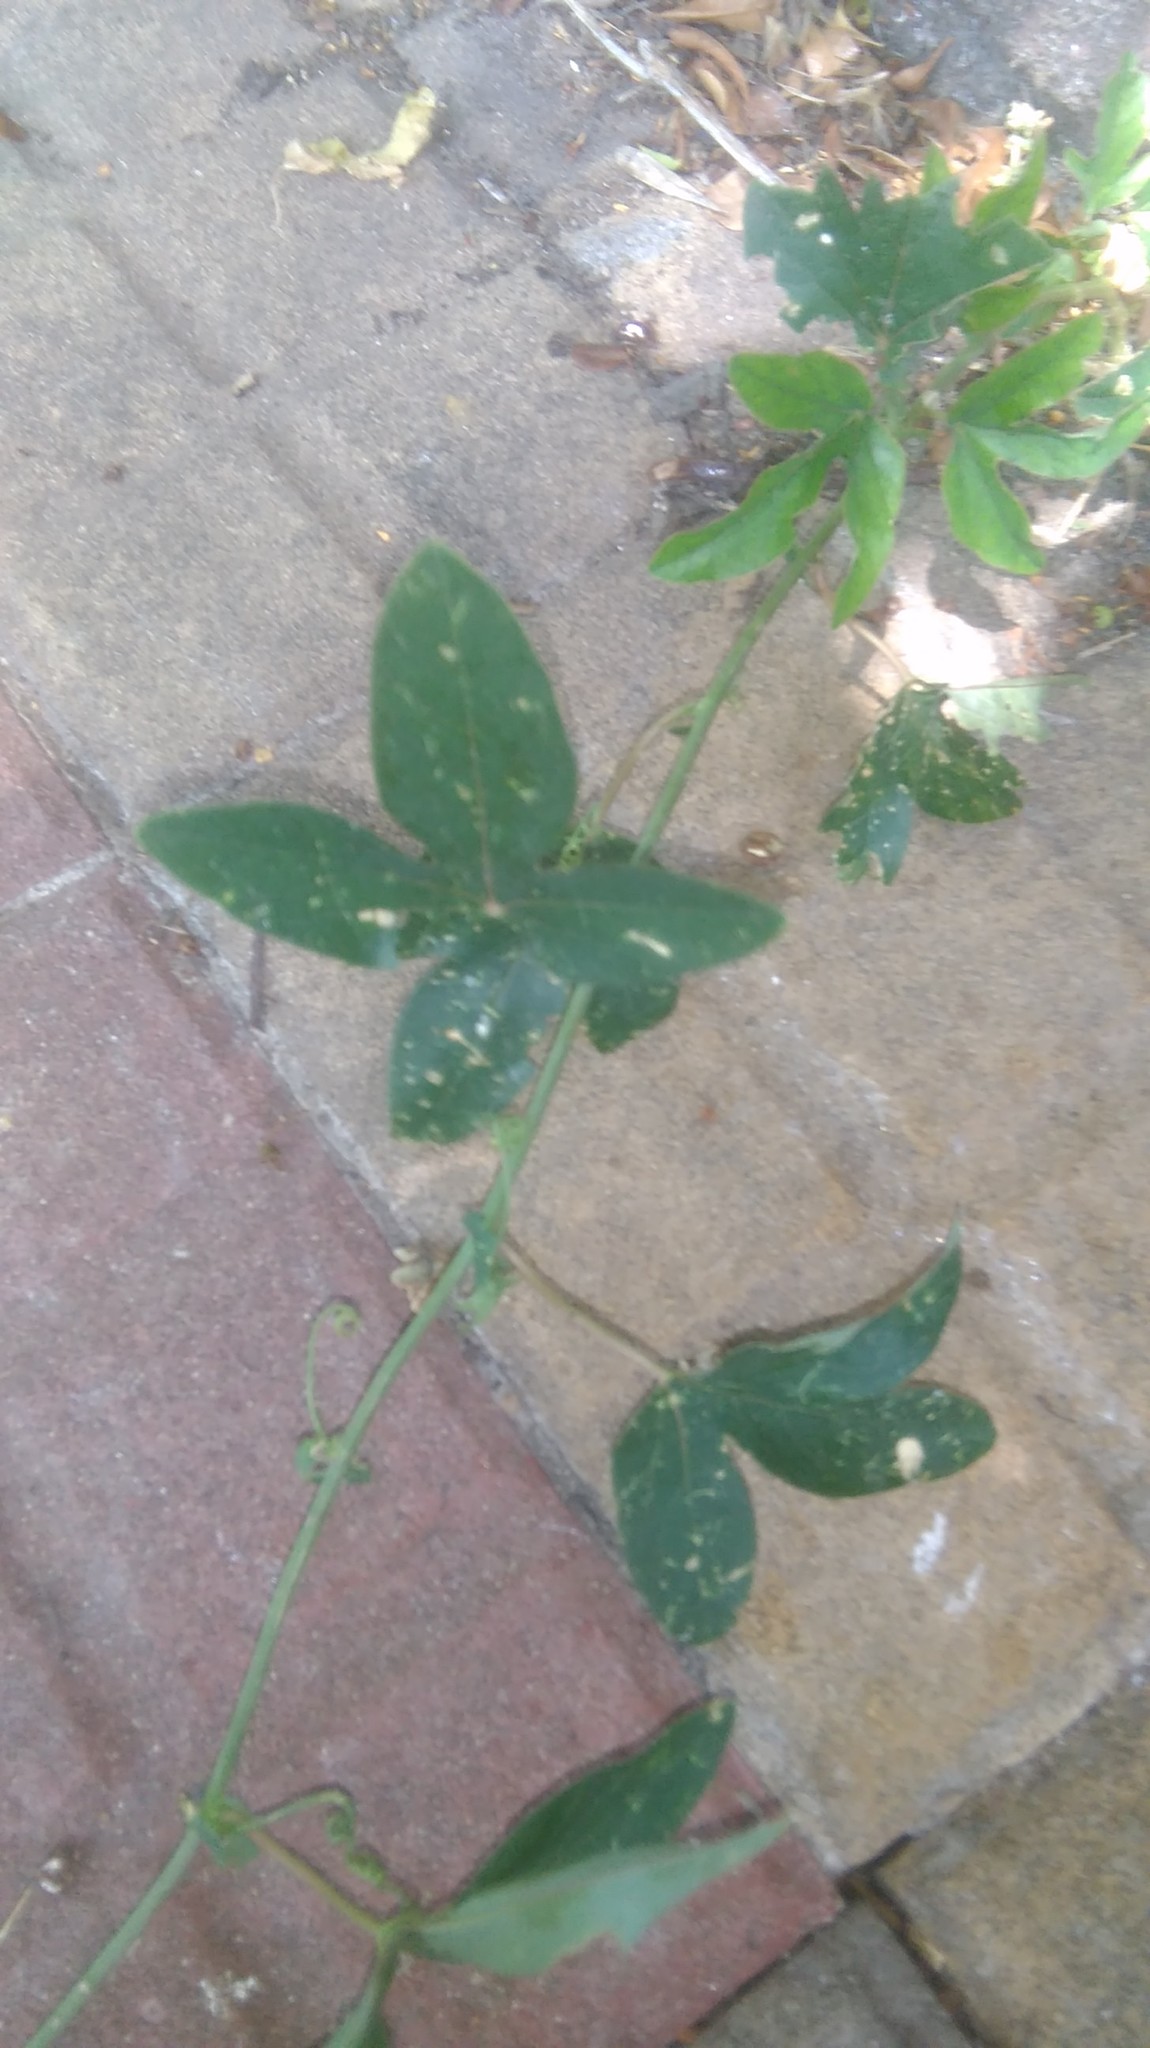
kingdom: Plantae
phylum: Tracheophyta
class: Magnoliopsida
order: Malpighiales
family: Passifloraceae
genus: Passiflora
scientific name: Passiflora caerulea
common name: Blue passionflower
